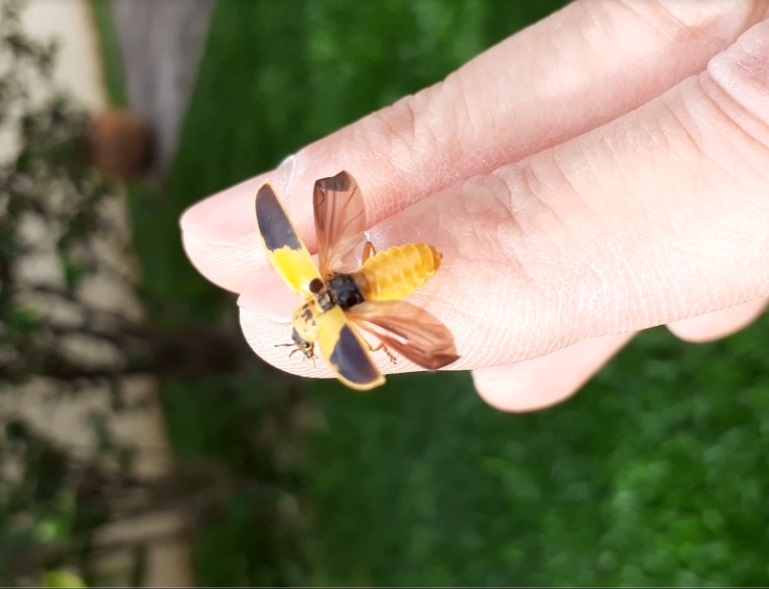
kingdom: Animalia
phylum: Arthropoda
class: Insecta
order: Coleoptera
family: Cantharidae
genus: Chauliognathus
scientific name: Chauliognathus
